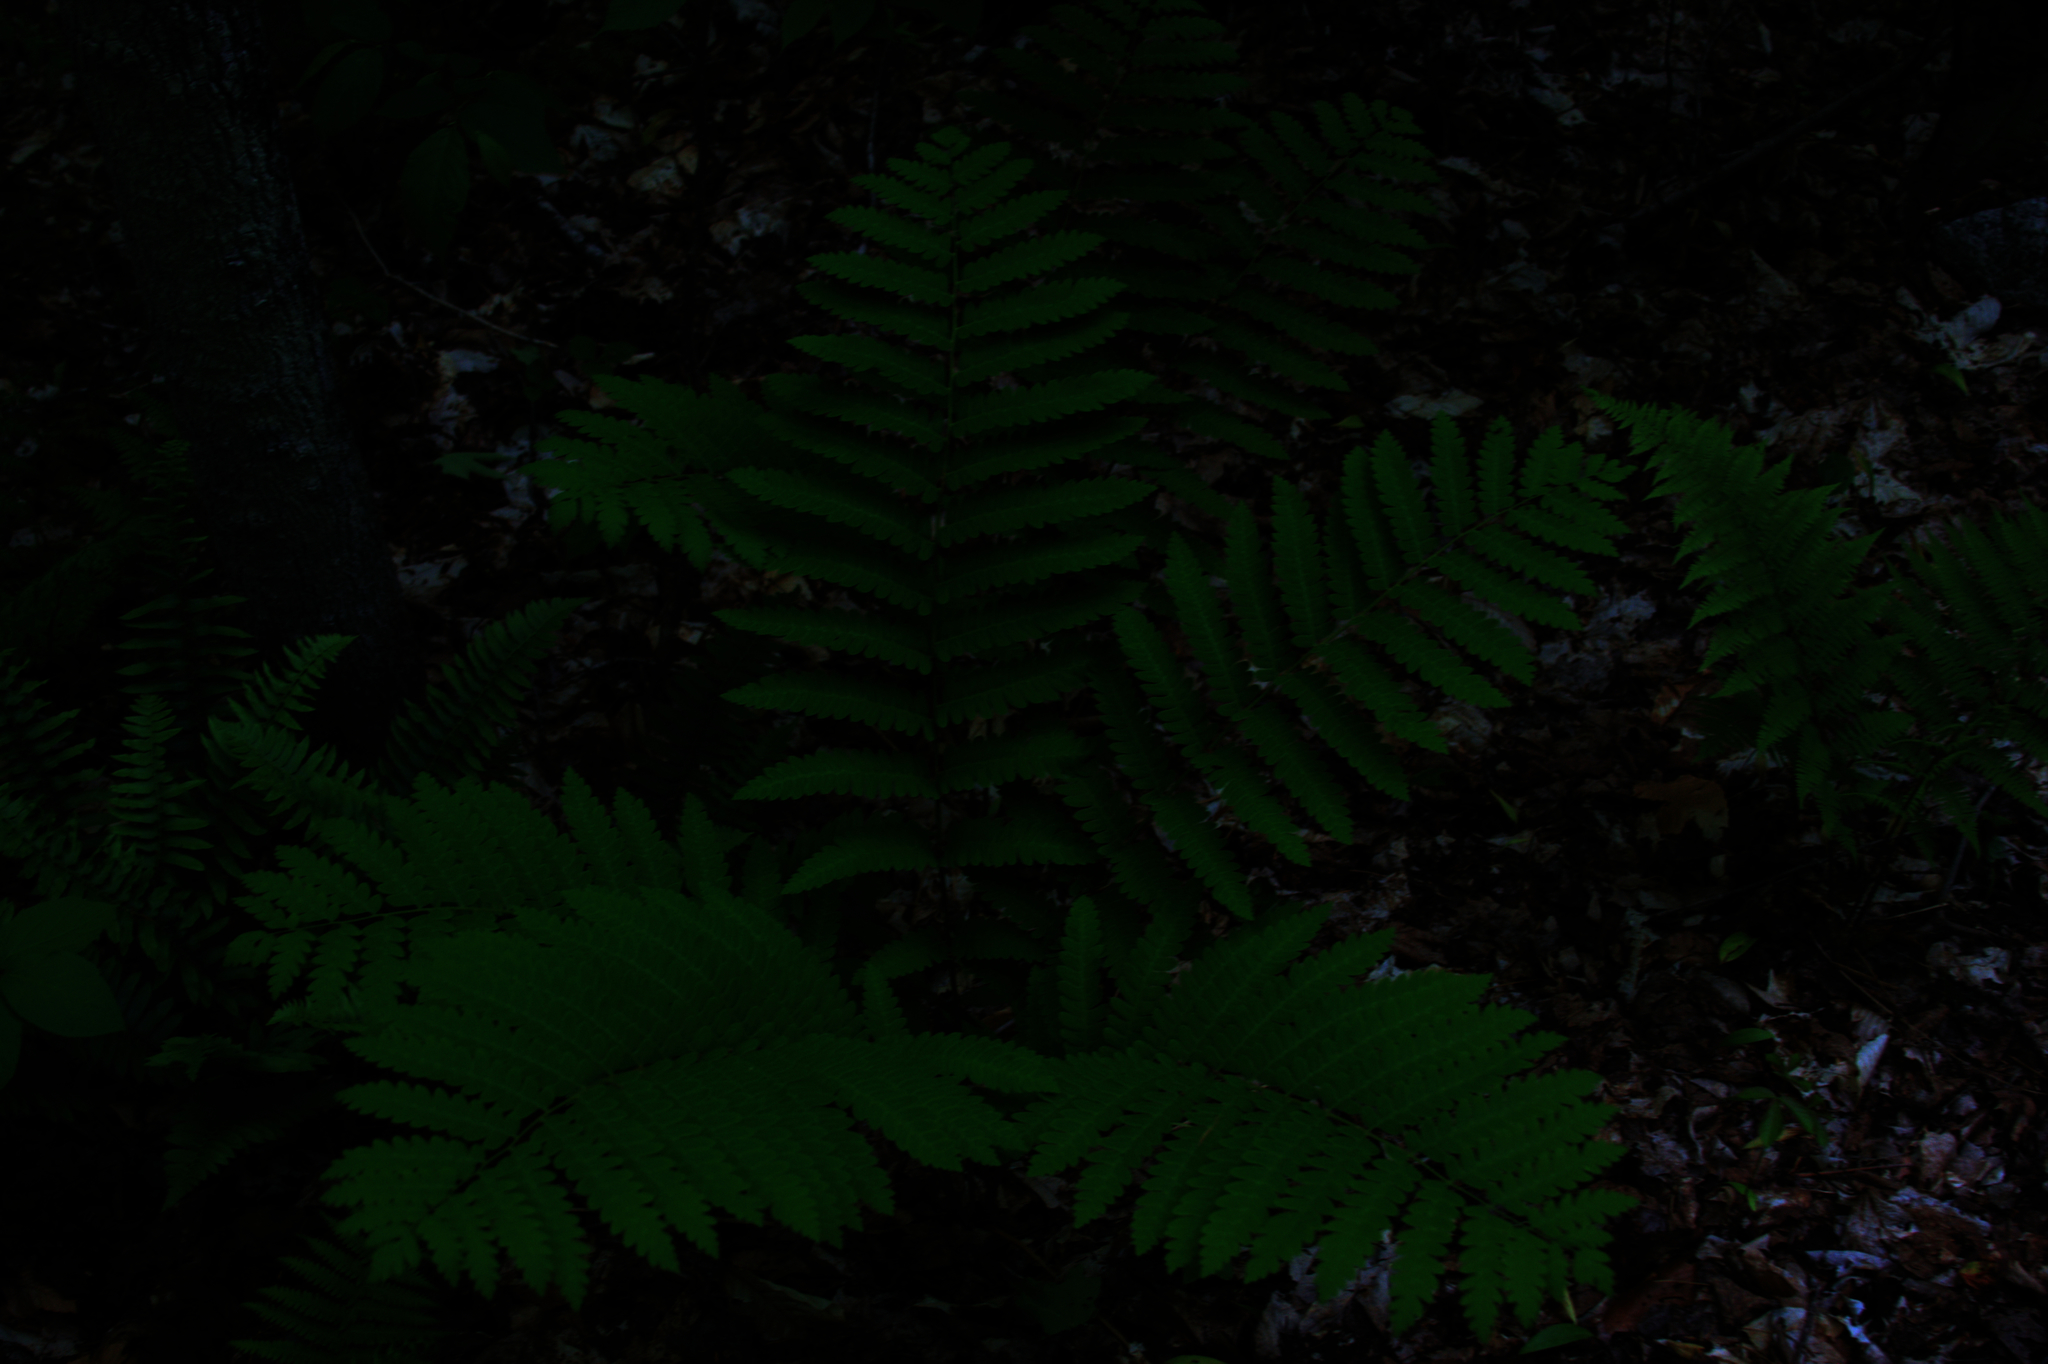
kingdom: Plantae
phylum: Tracheophyta
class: Polypodiopsida
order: Osmundales
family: Osmundaceae
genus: Claytosmunda
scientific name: Claytosmunda claytoniana
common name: Clayton's fern
